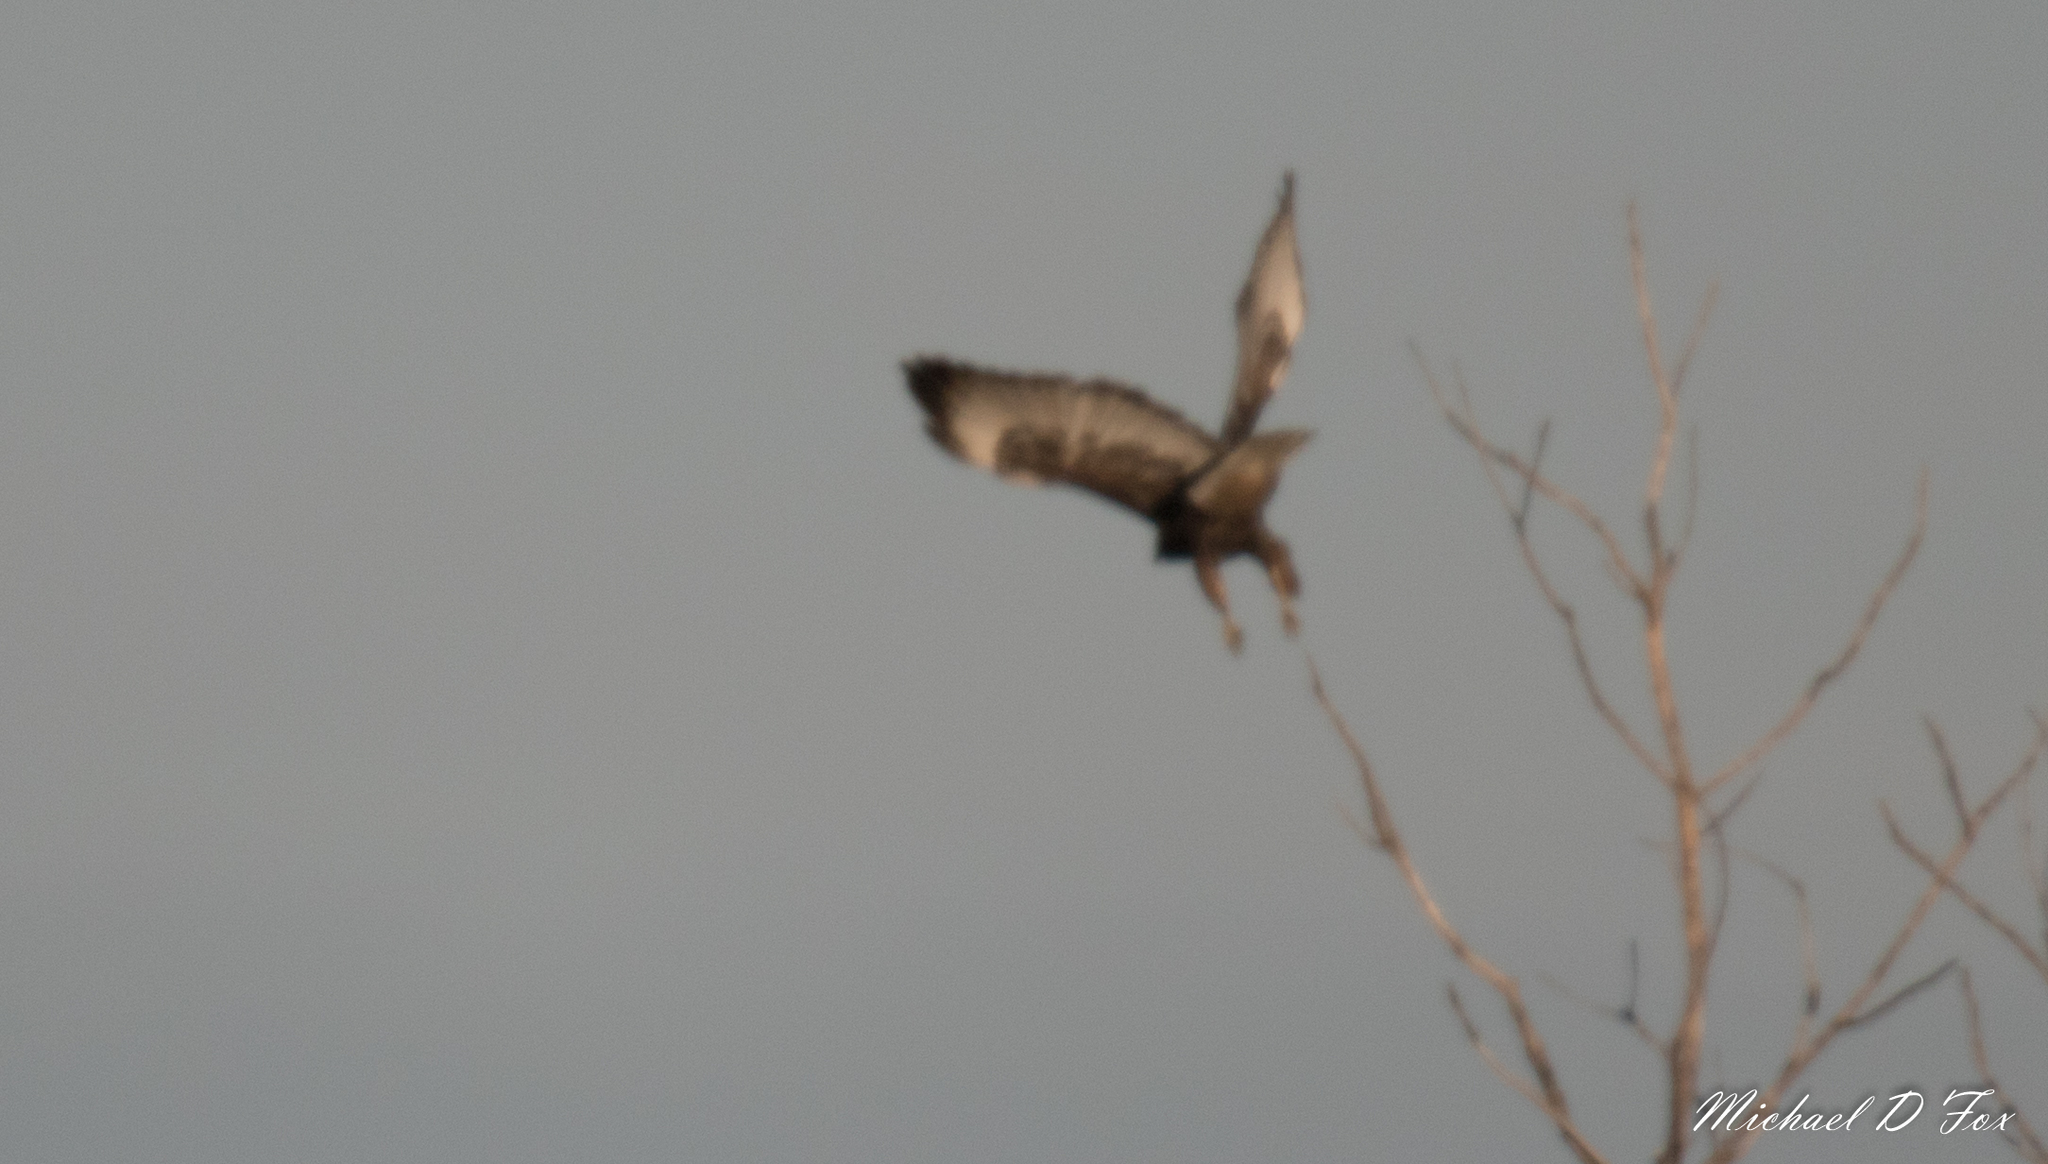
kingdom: Animalia
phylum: Chordata
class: Aves
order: Accipitriformes
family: Accipitridae
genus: Buteo
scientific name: Buteo jamaicensis
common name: Red-tailed hawk
